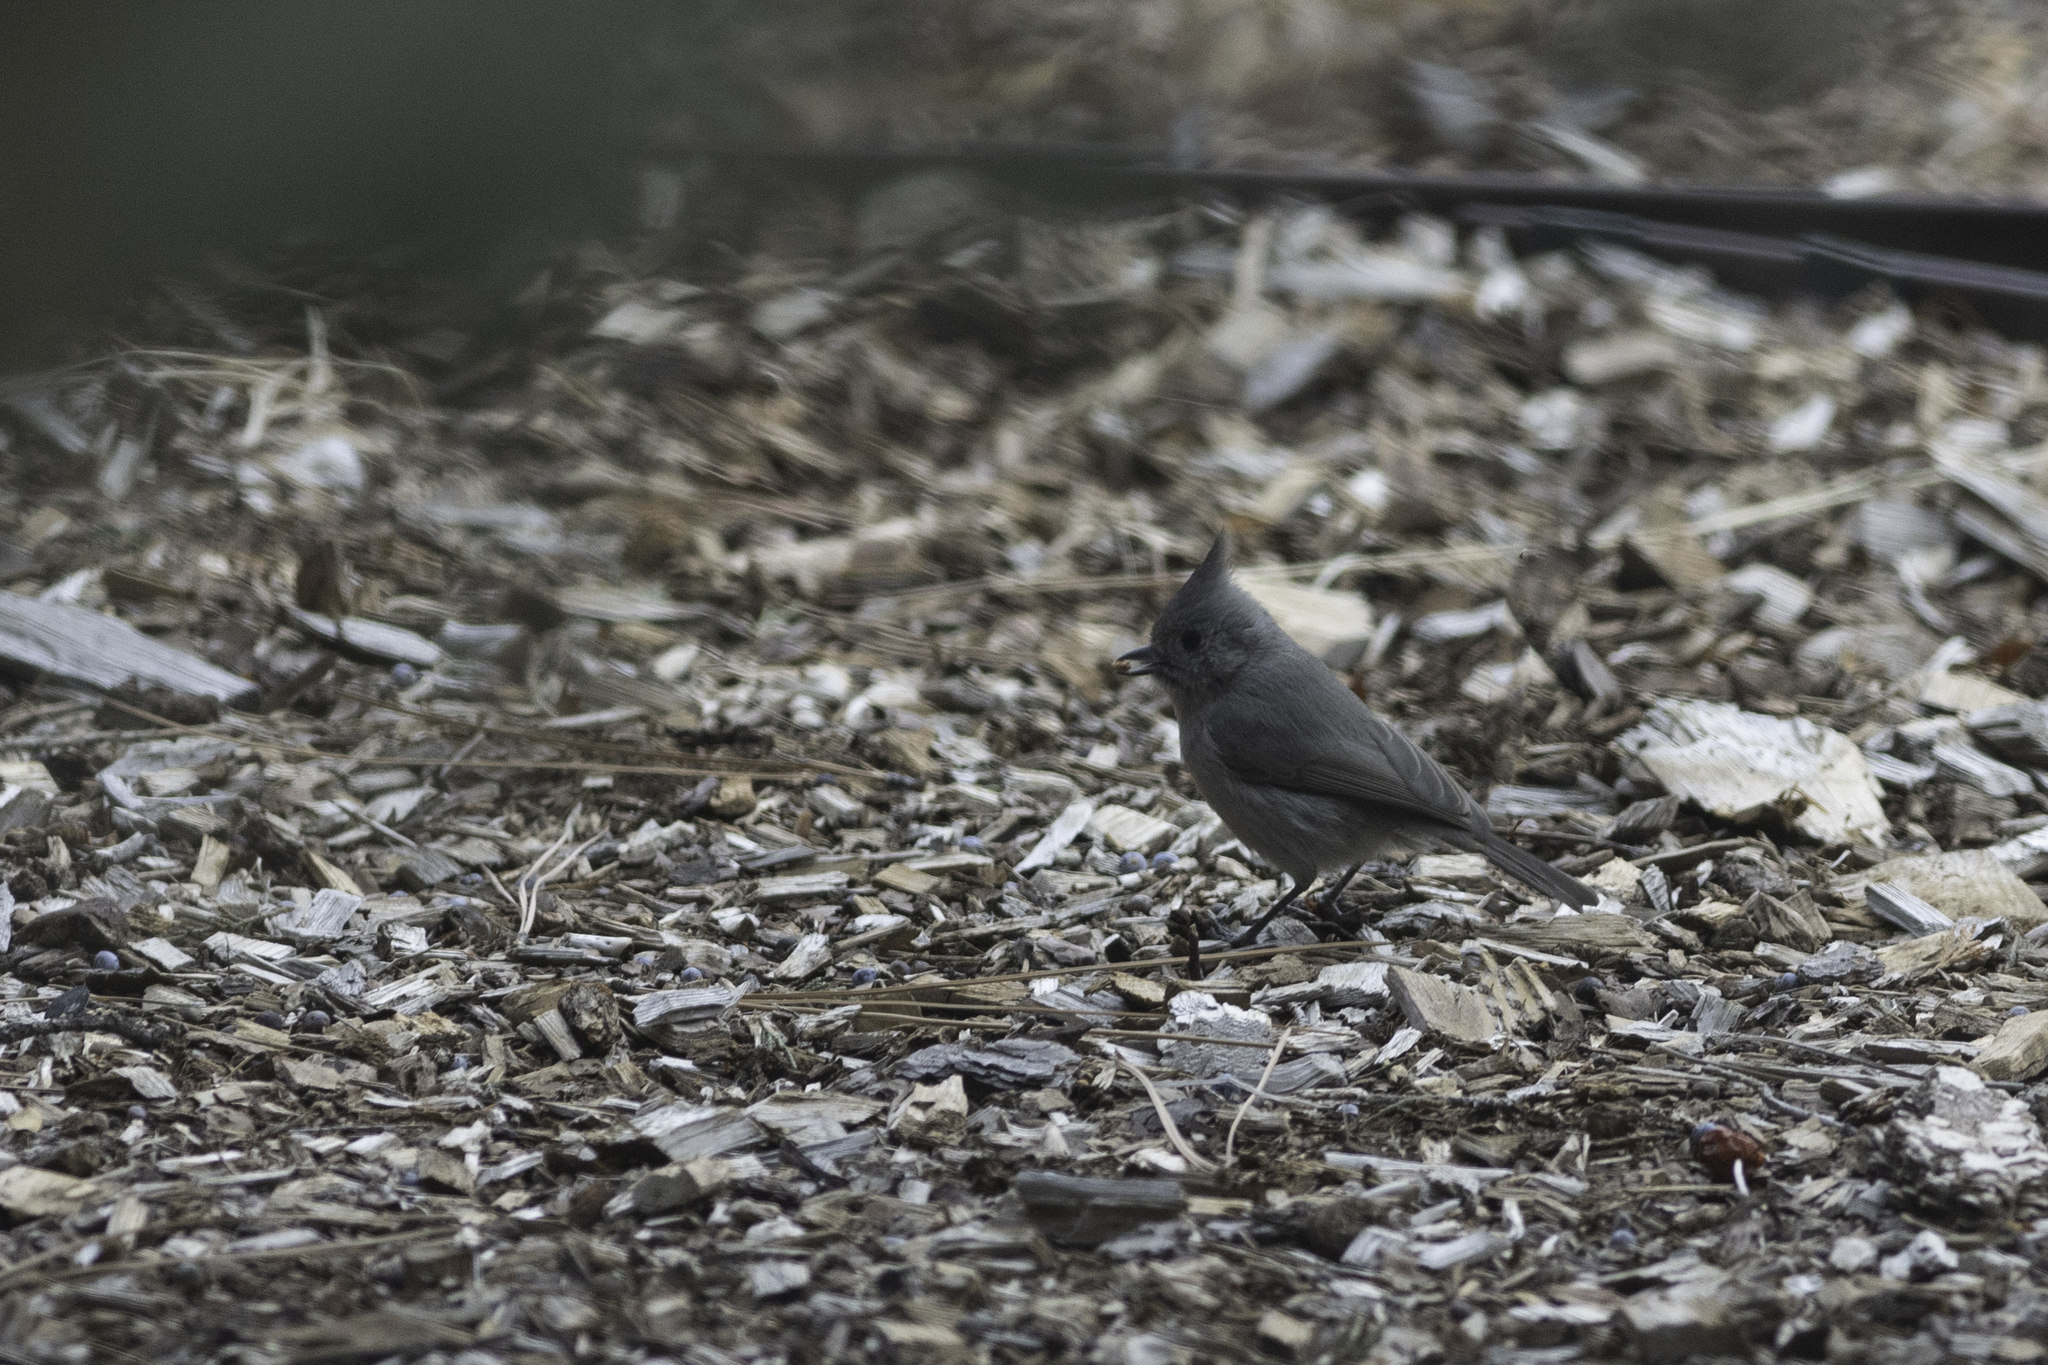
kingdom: Animalia
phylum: Chordata
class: Aves
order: Passeriformes
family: Paridae
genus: Baeolophus
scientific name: Baeolophus ridgwayi
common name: Juniper titmouse
